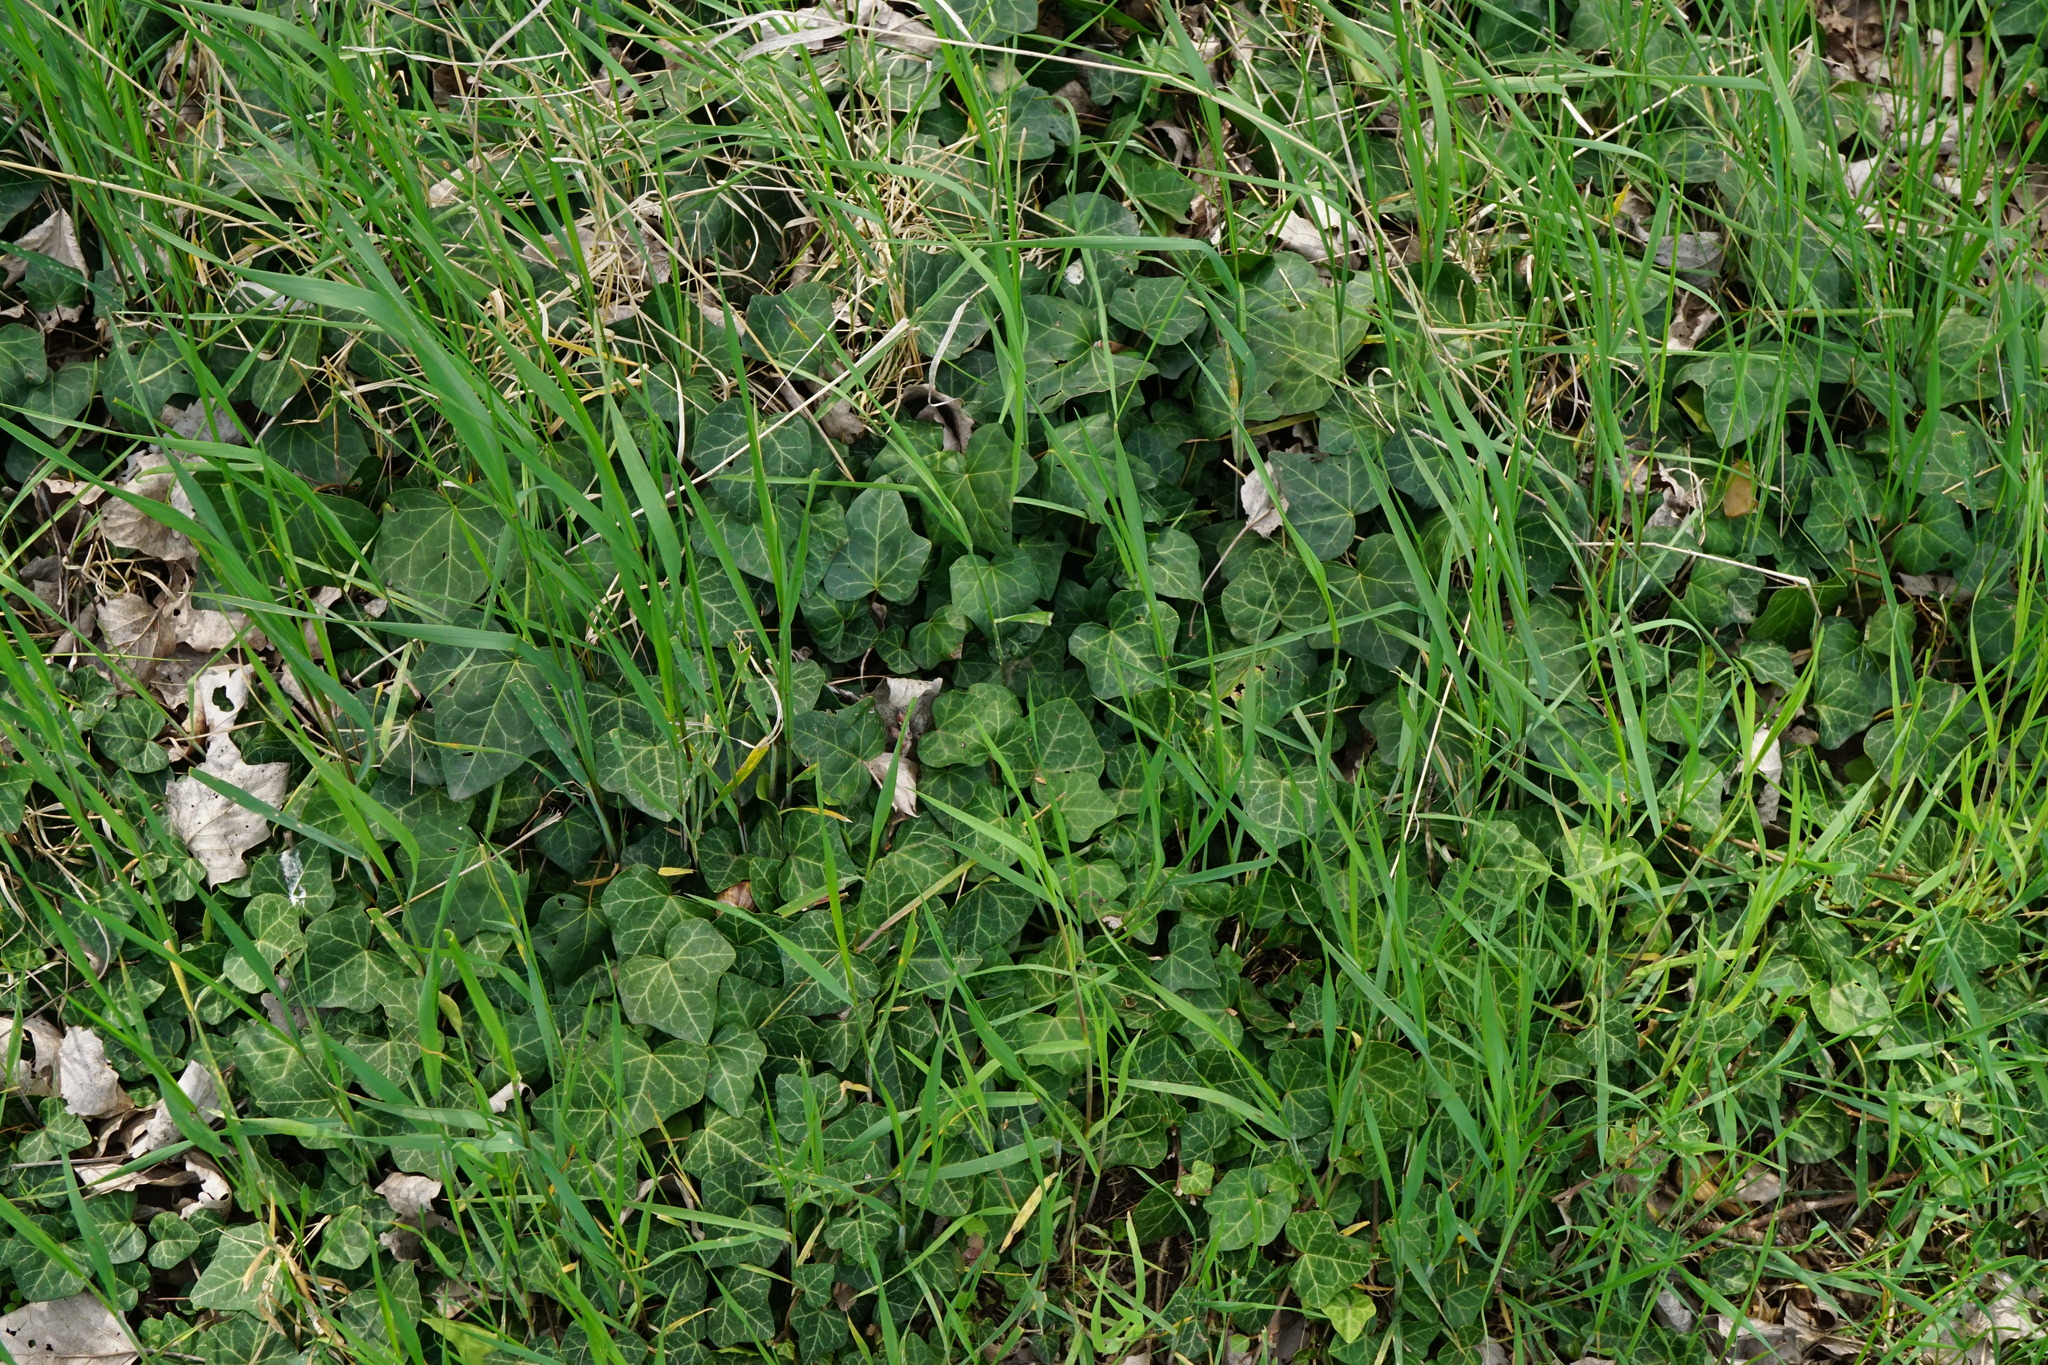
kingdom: Plantae
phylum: Tracheophyta
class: Magnoliopsida
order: Apiales
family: Araliaceae
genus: Hedera
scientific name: Hedera helix
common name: Ivy
